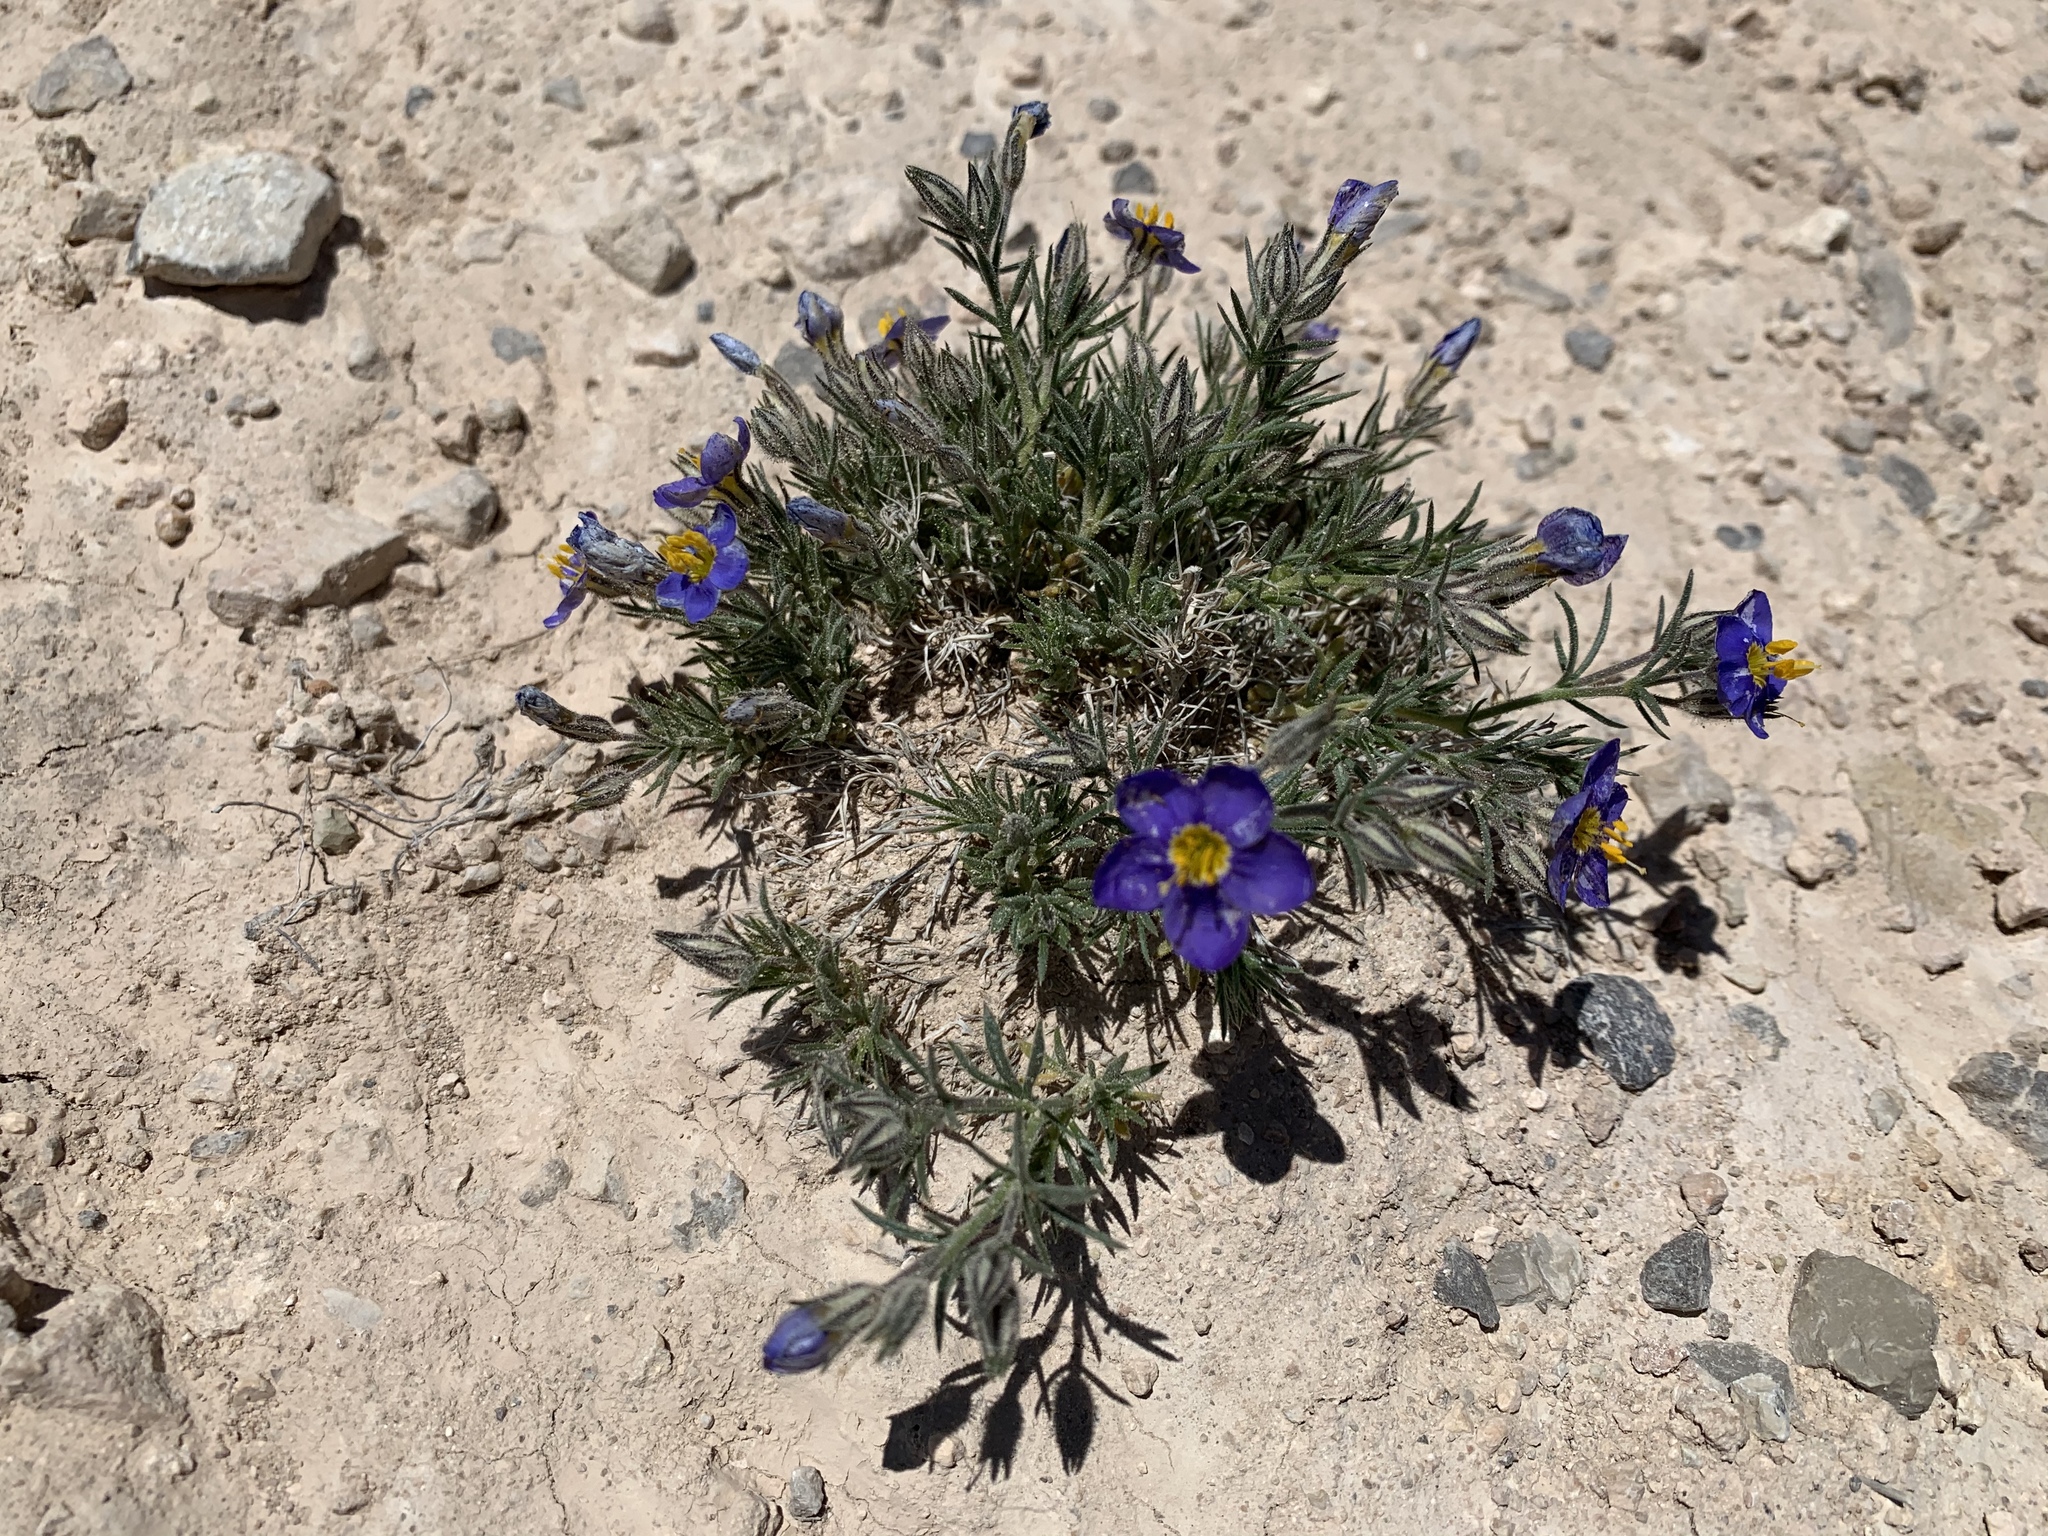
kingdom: Plantae
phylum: Tracheophyta
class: Magnoliopsida
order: Ericales
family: Polemoniaceae
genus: Giliastrum
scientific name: Giliastrum acerosum
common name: Bluebowls
